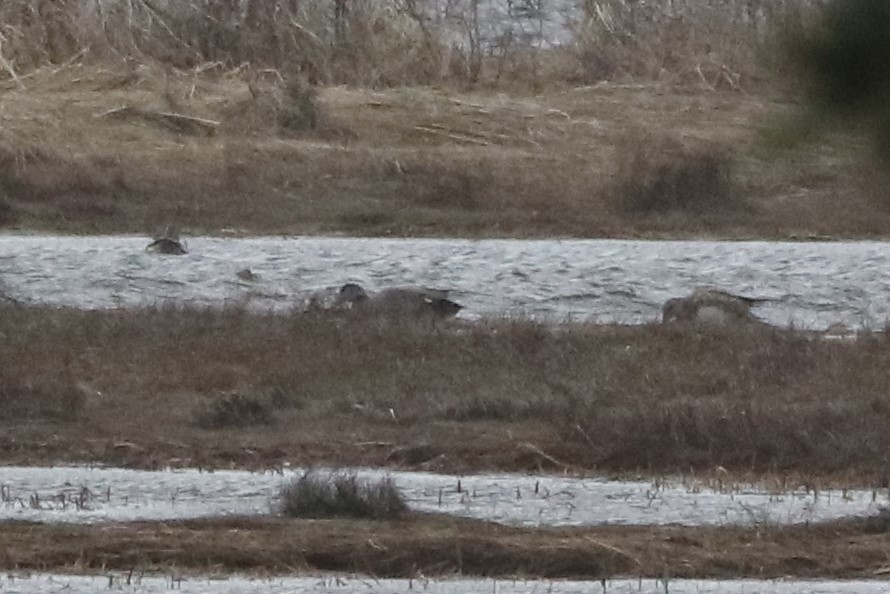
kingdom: Animalia
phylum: Chordata
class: Aves
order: Anseriformes
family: Anatidae
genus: Mareca
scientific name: Mareca strepera
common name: Gadwall
